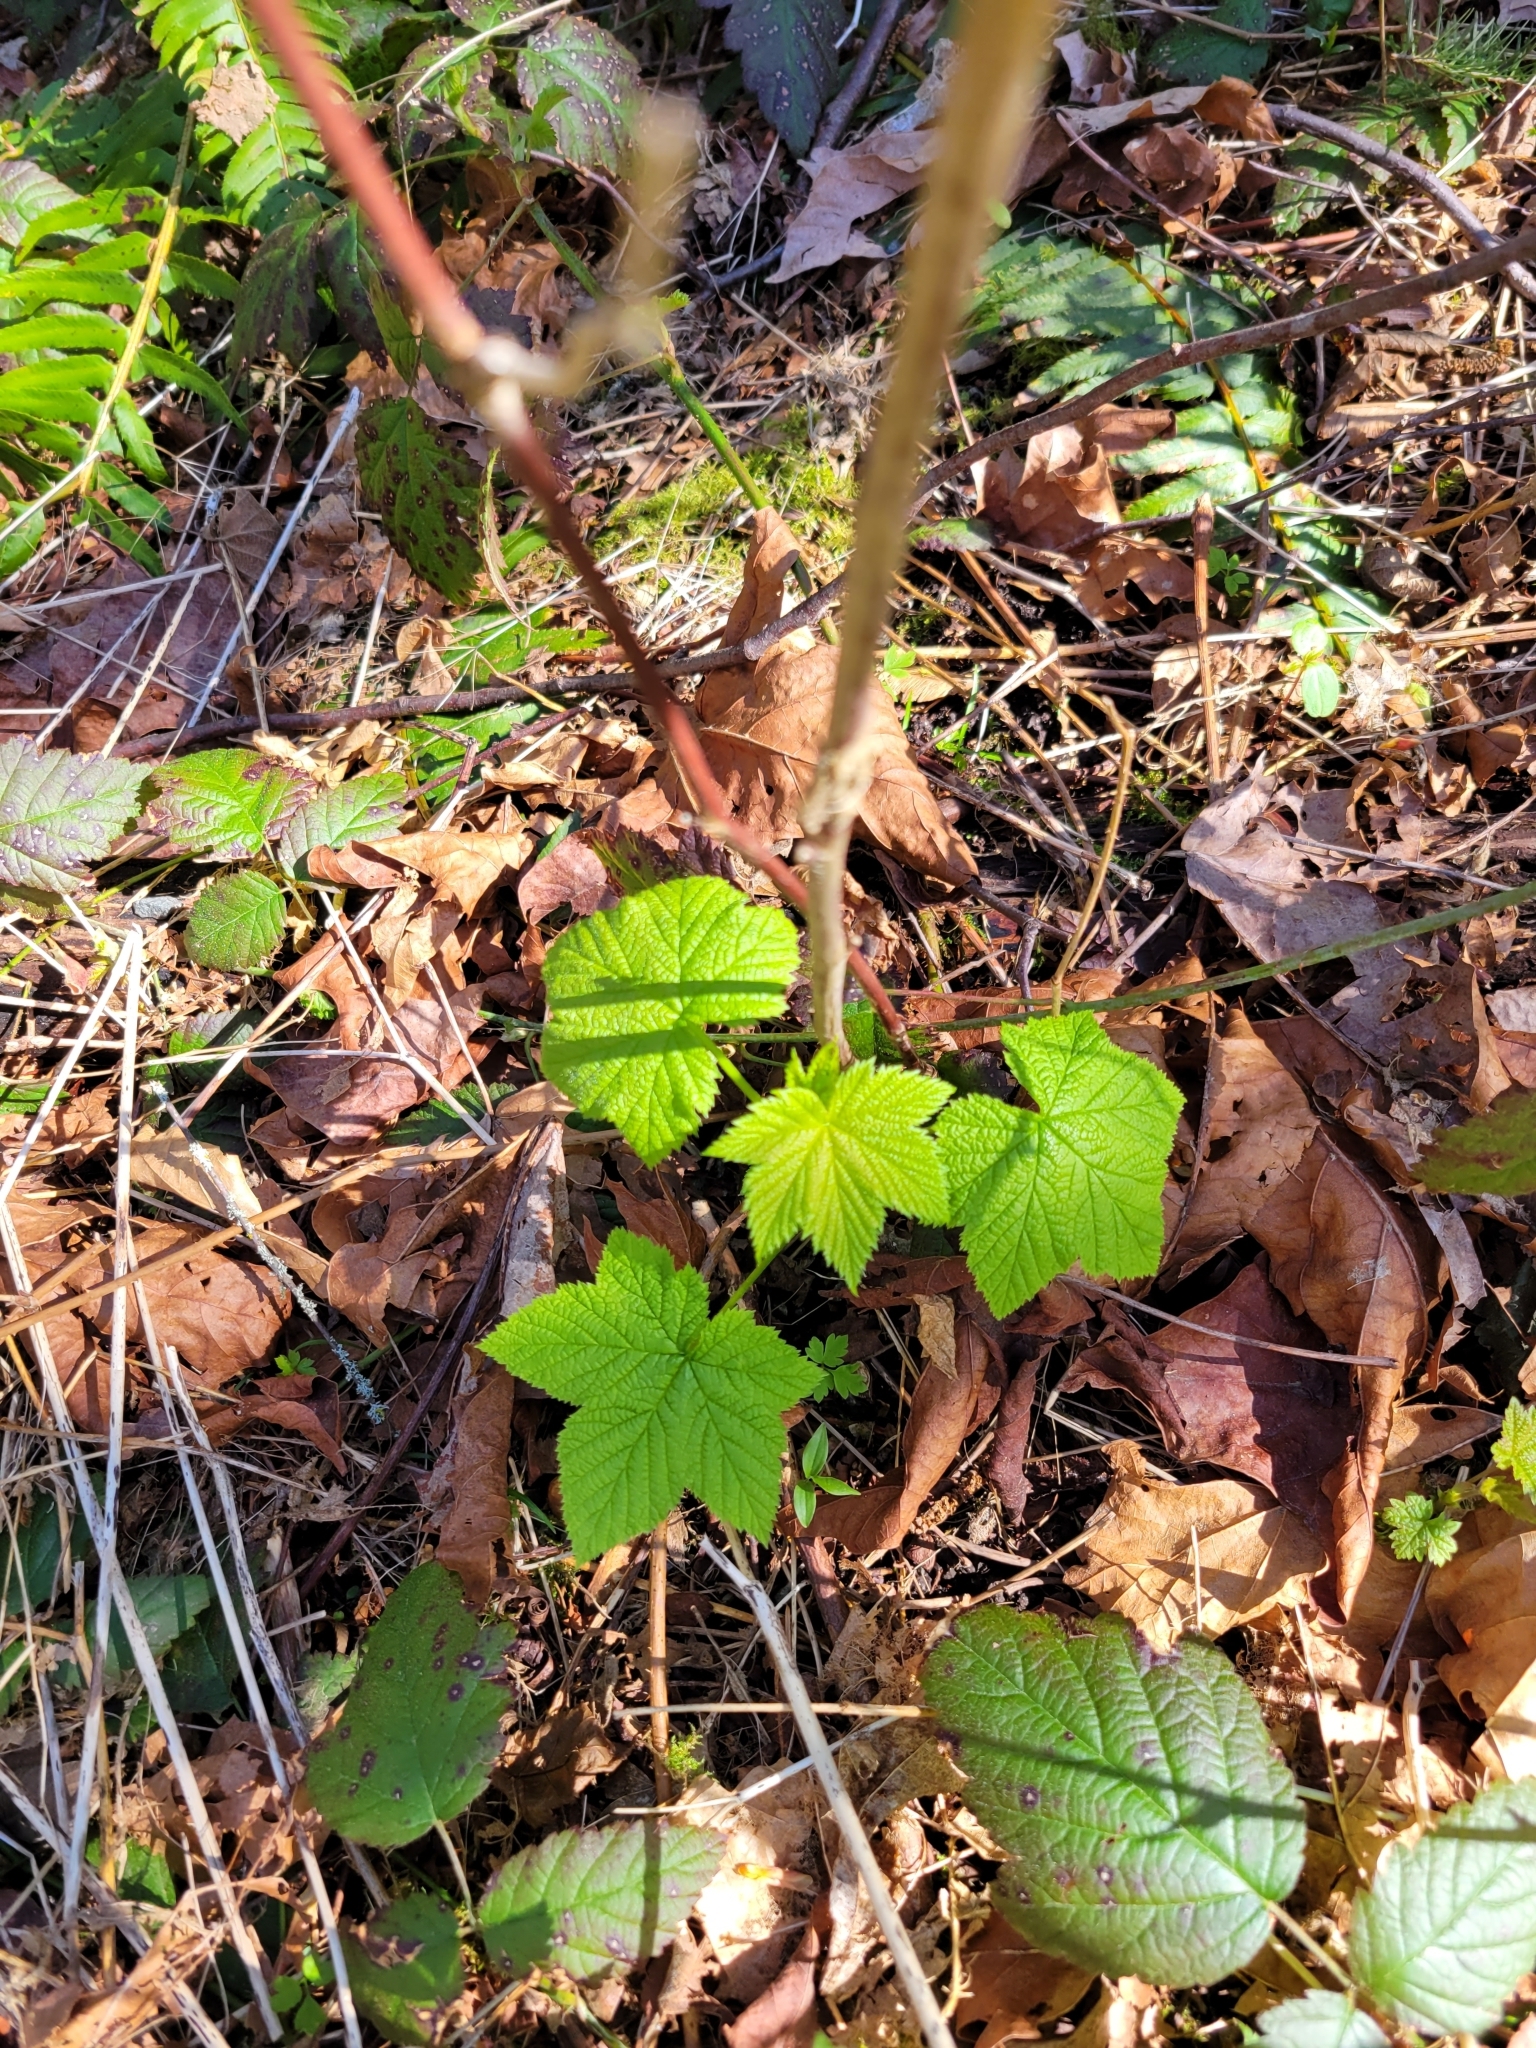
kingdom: Plantae
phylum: Tracheophyta
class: Magnoliopsida
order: Rosales
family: Rosaceae
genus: Rubus
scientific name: Rubus parviflorus
